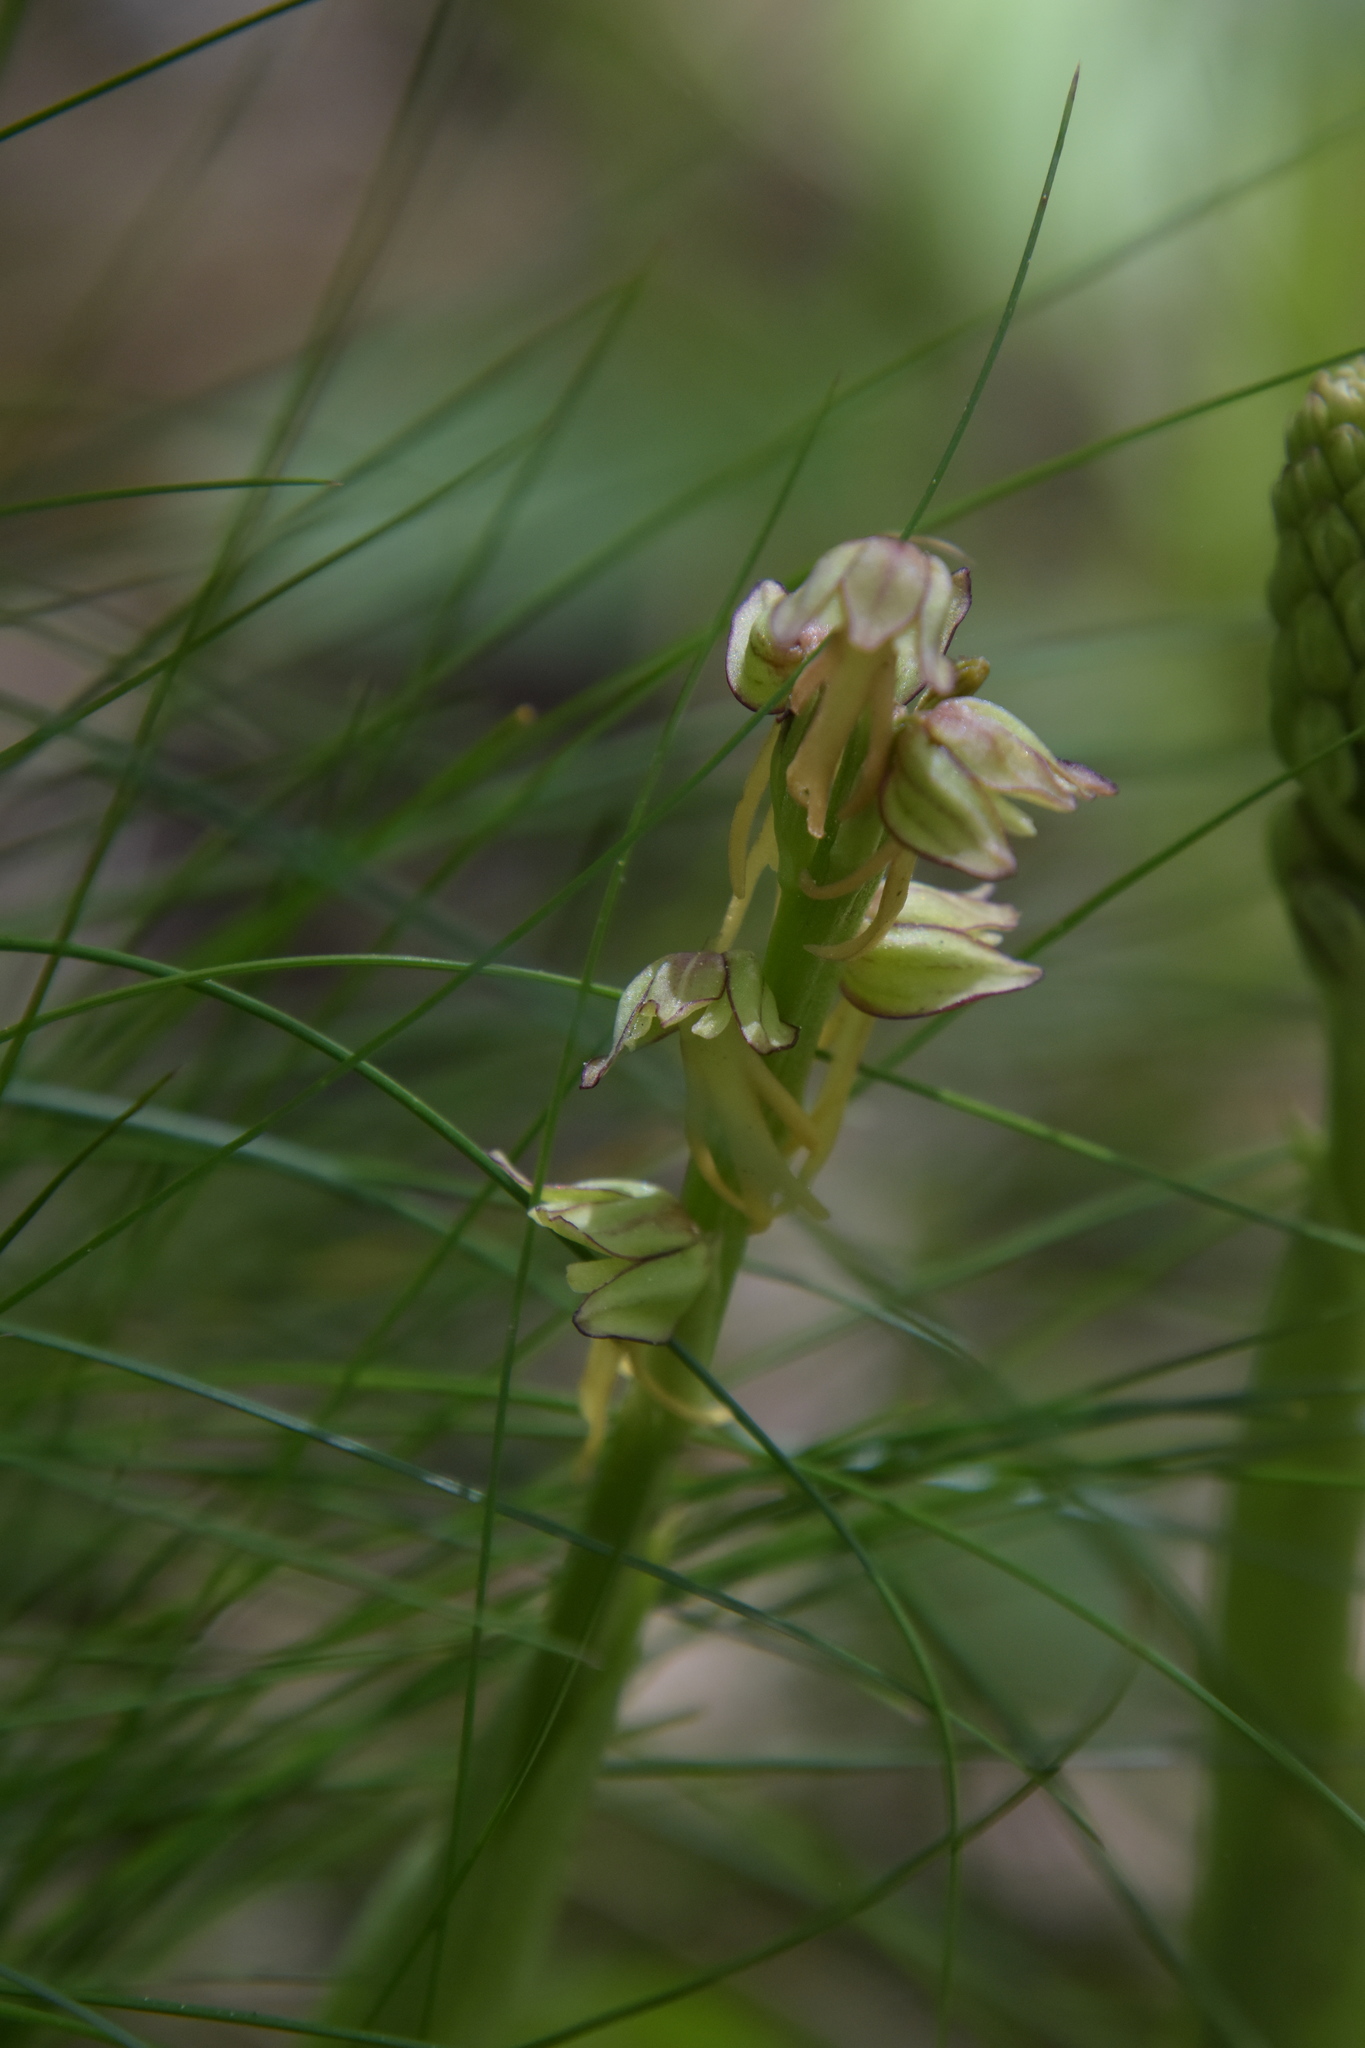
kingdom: Plantae
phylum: Tracheophyta
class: Liliopsida
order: Asparagales
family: Orchidaceae
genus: Orchis
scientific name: Orchis anthropophora
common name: Man orchid
